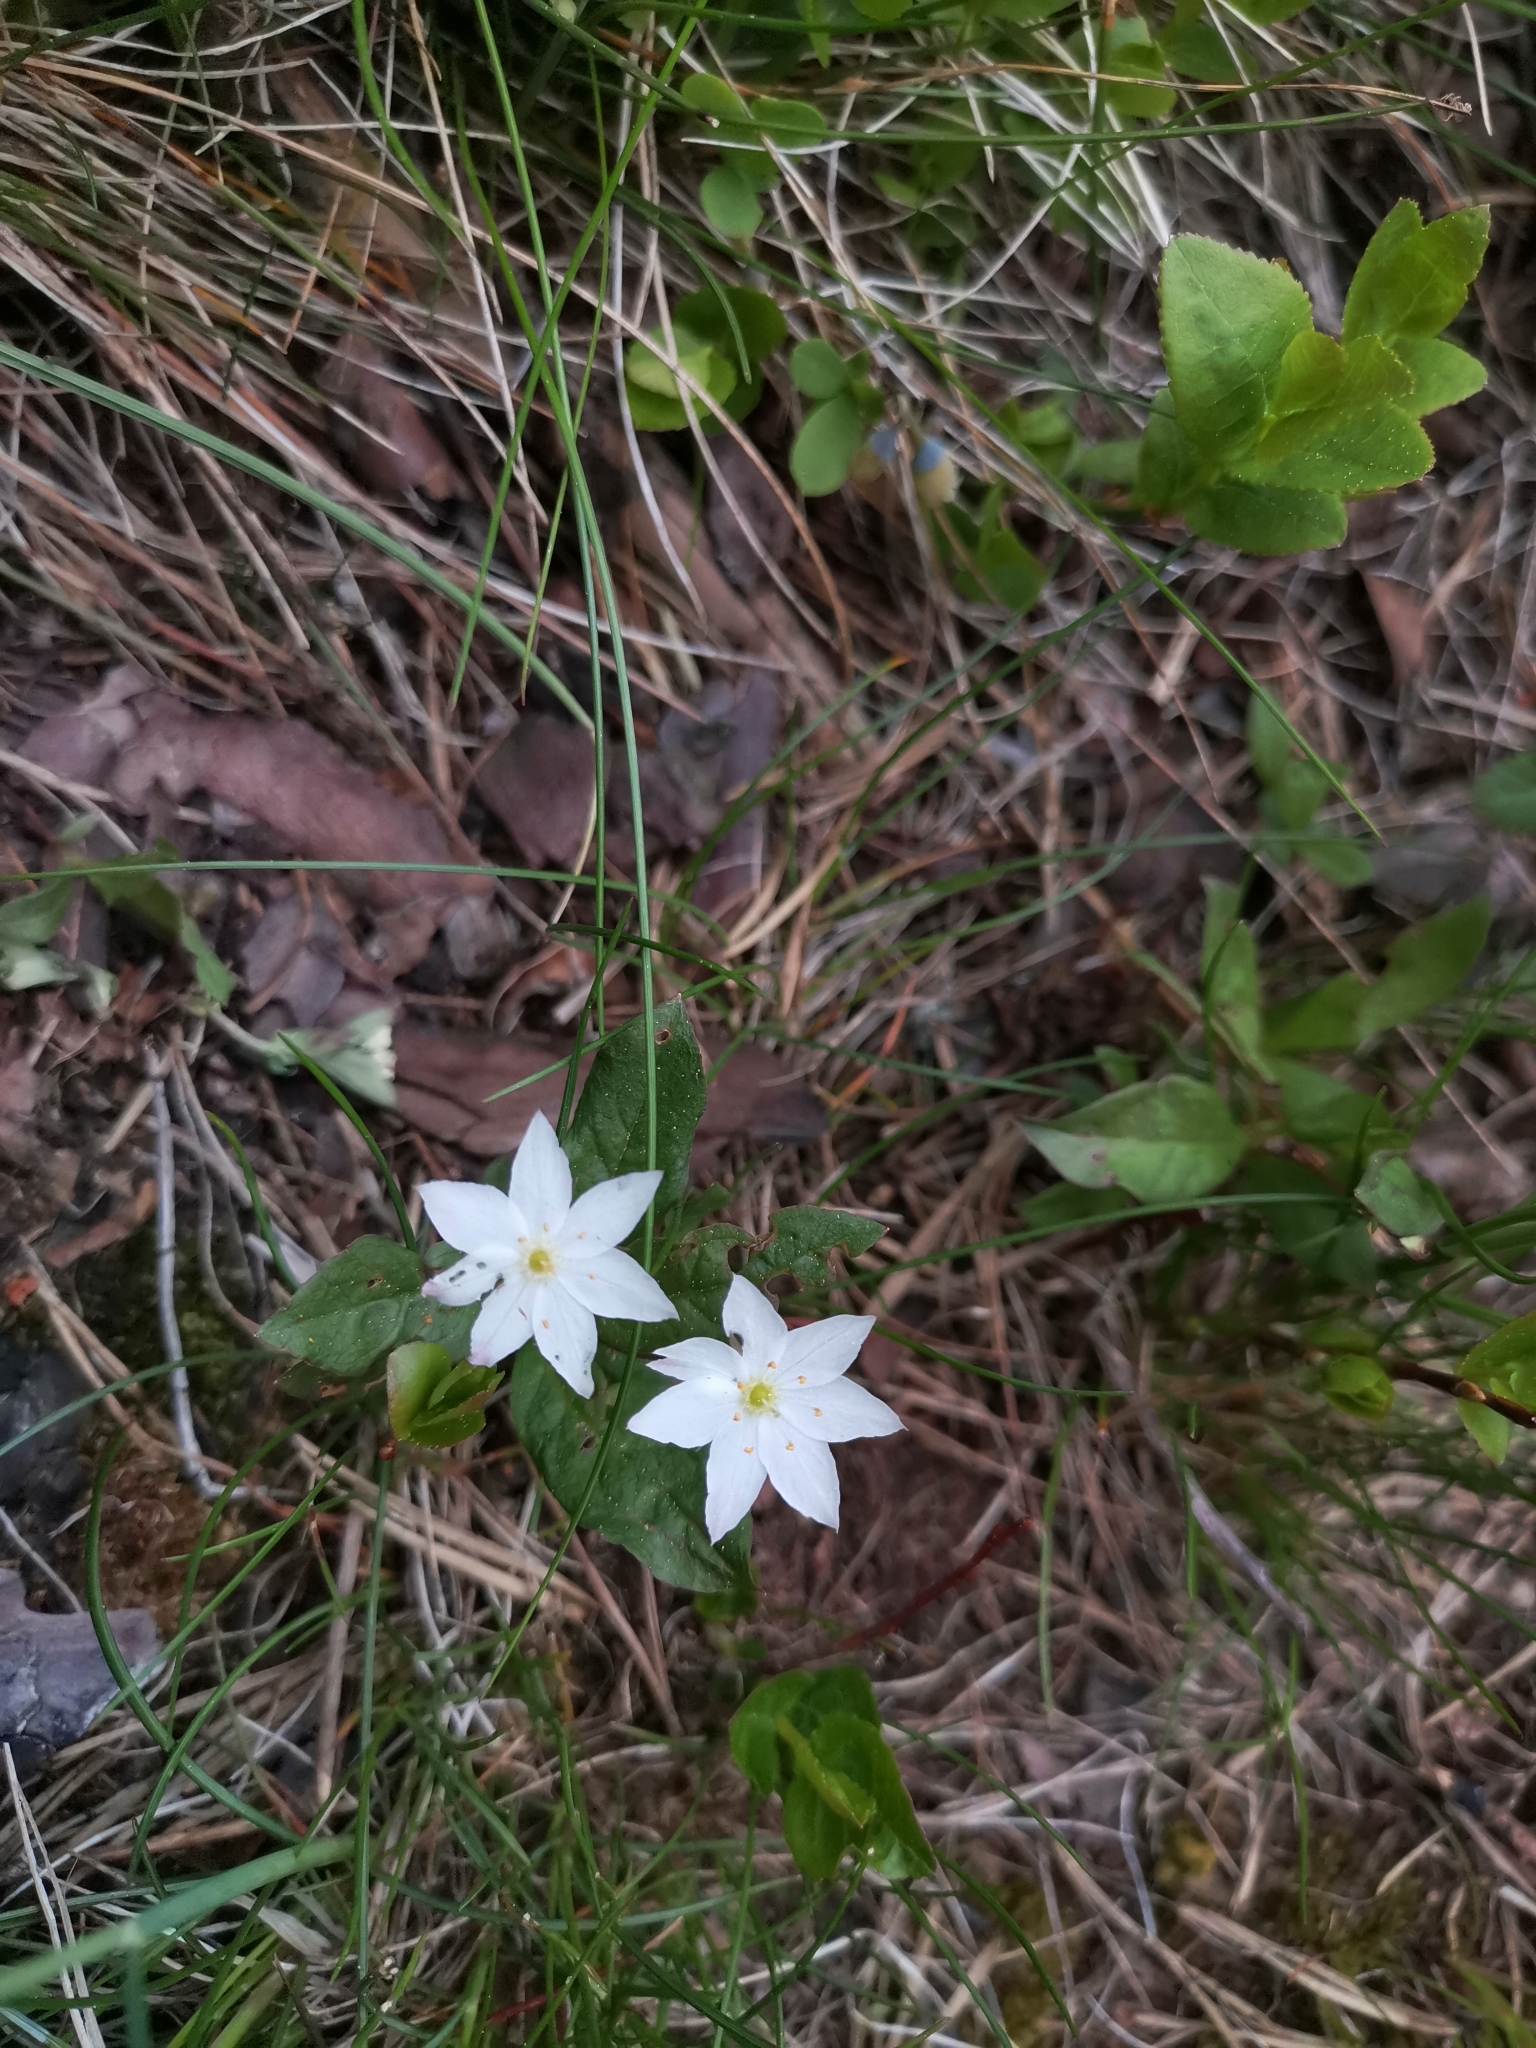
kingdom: Plantae
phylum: Tracheophyta
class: Magnoliopsida
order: Ericales
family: Primulaceae
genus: Lysimachia
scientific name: Lysimachia europaea
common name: Arctic starflower
